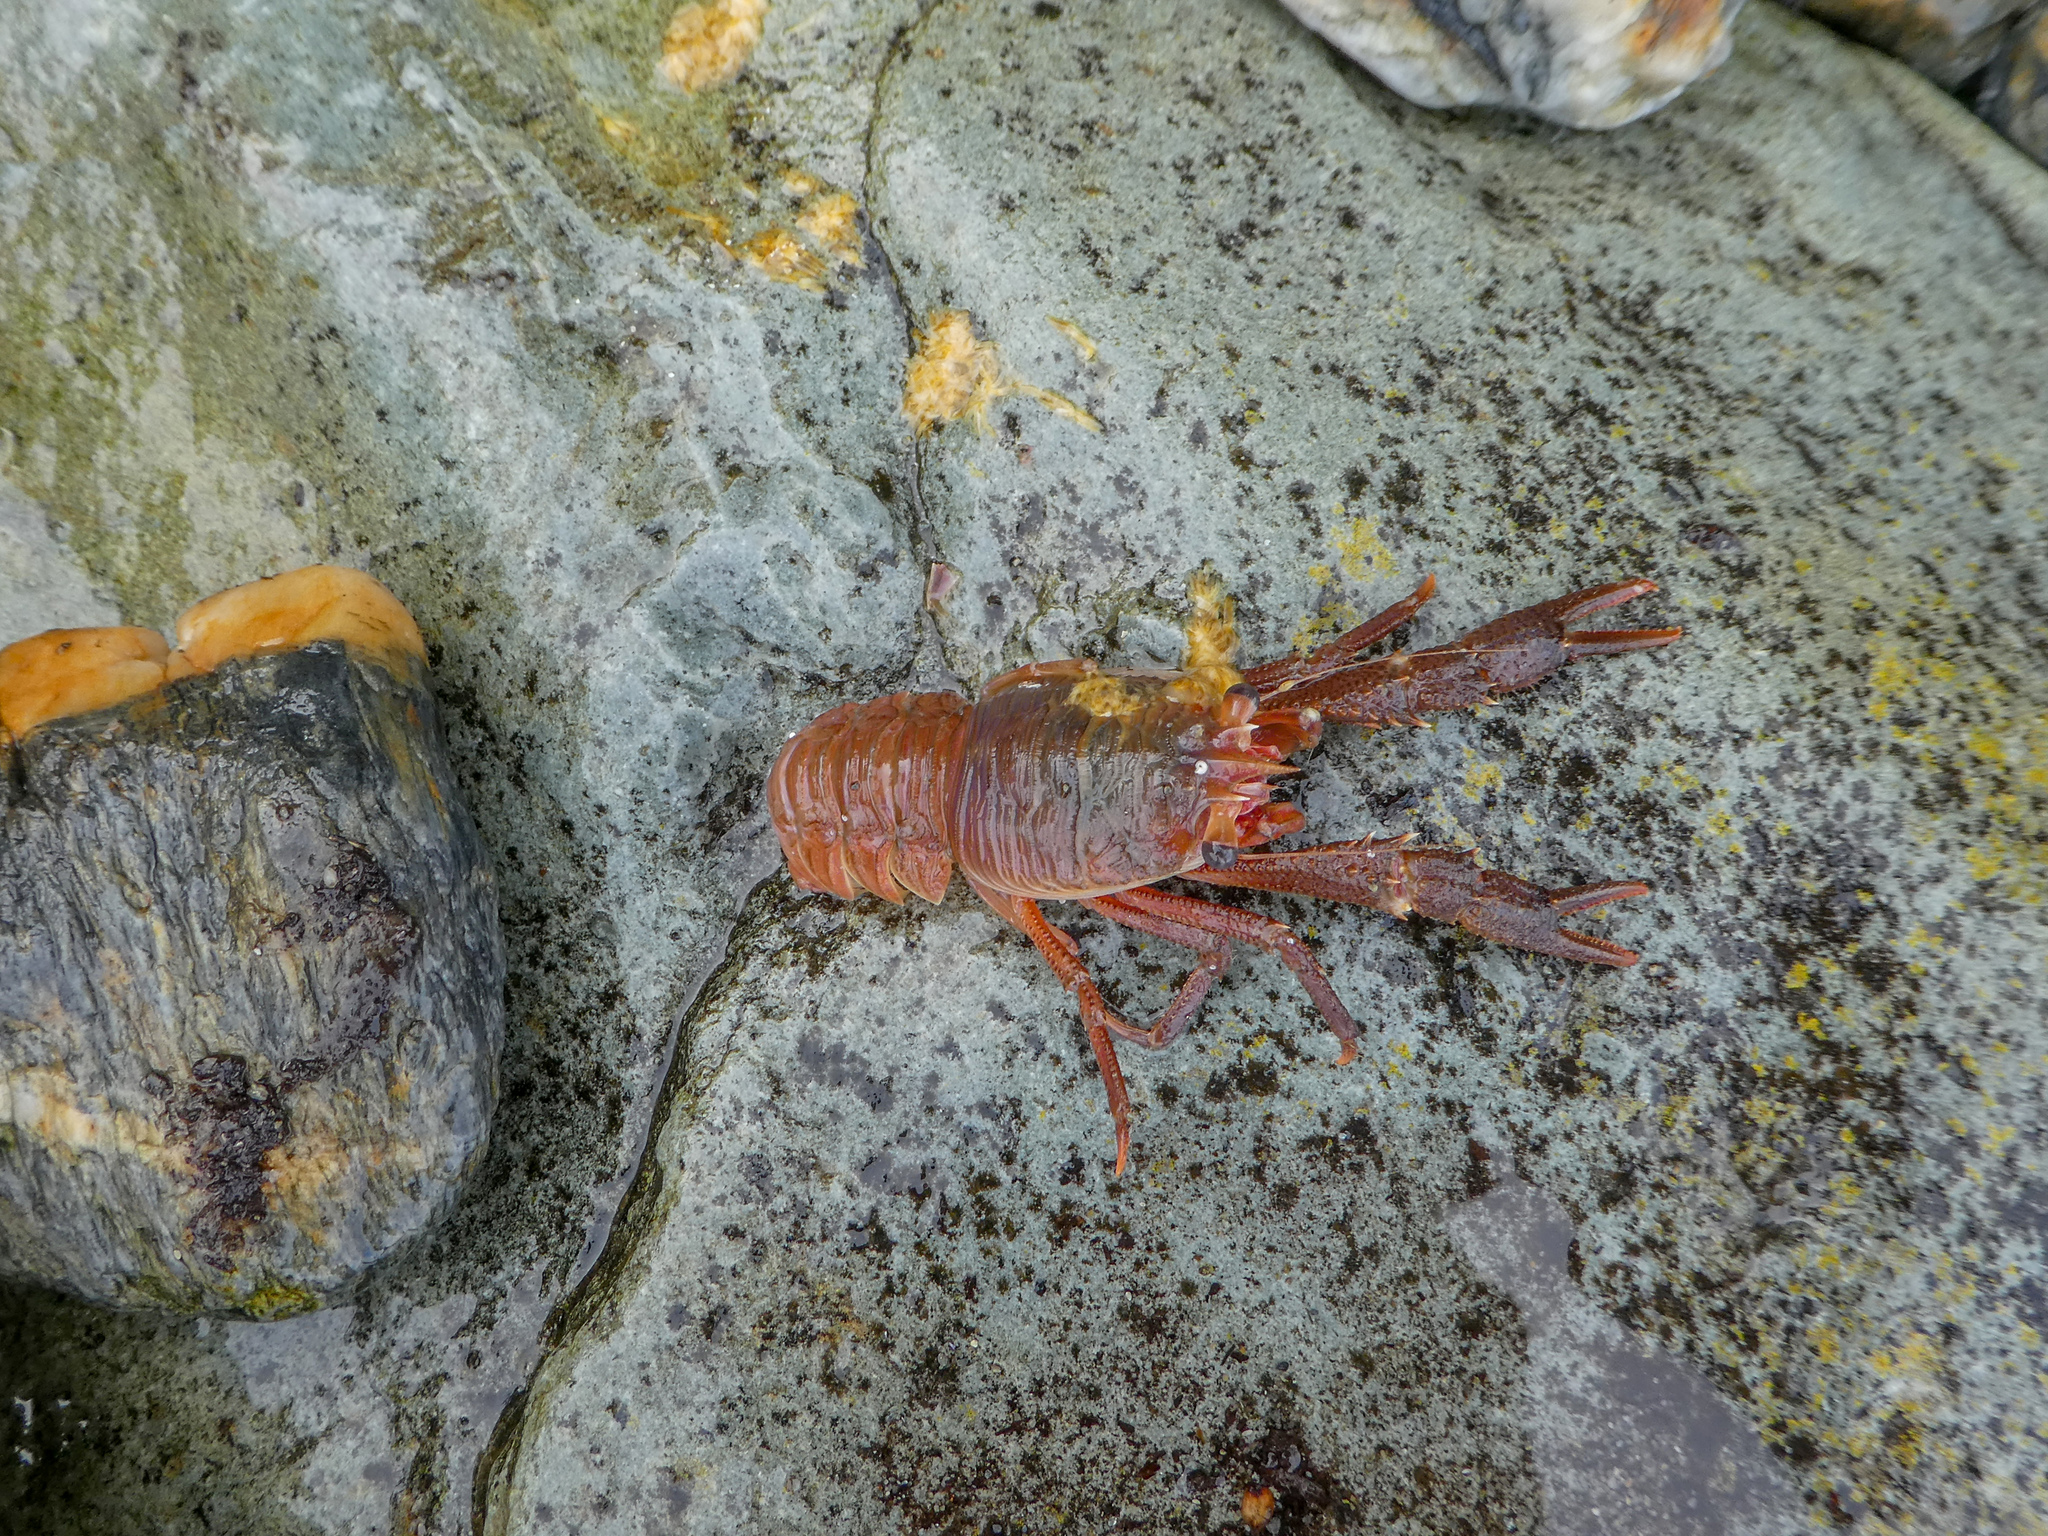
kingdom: Animalia
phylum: Arthropoda
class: Malacostraca
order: Decapoda
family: Munididae
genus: Grimothea
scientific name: Grimothea gregaria
